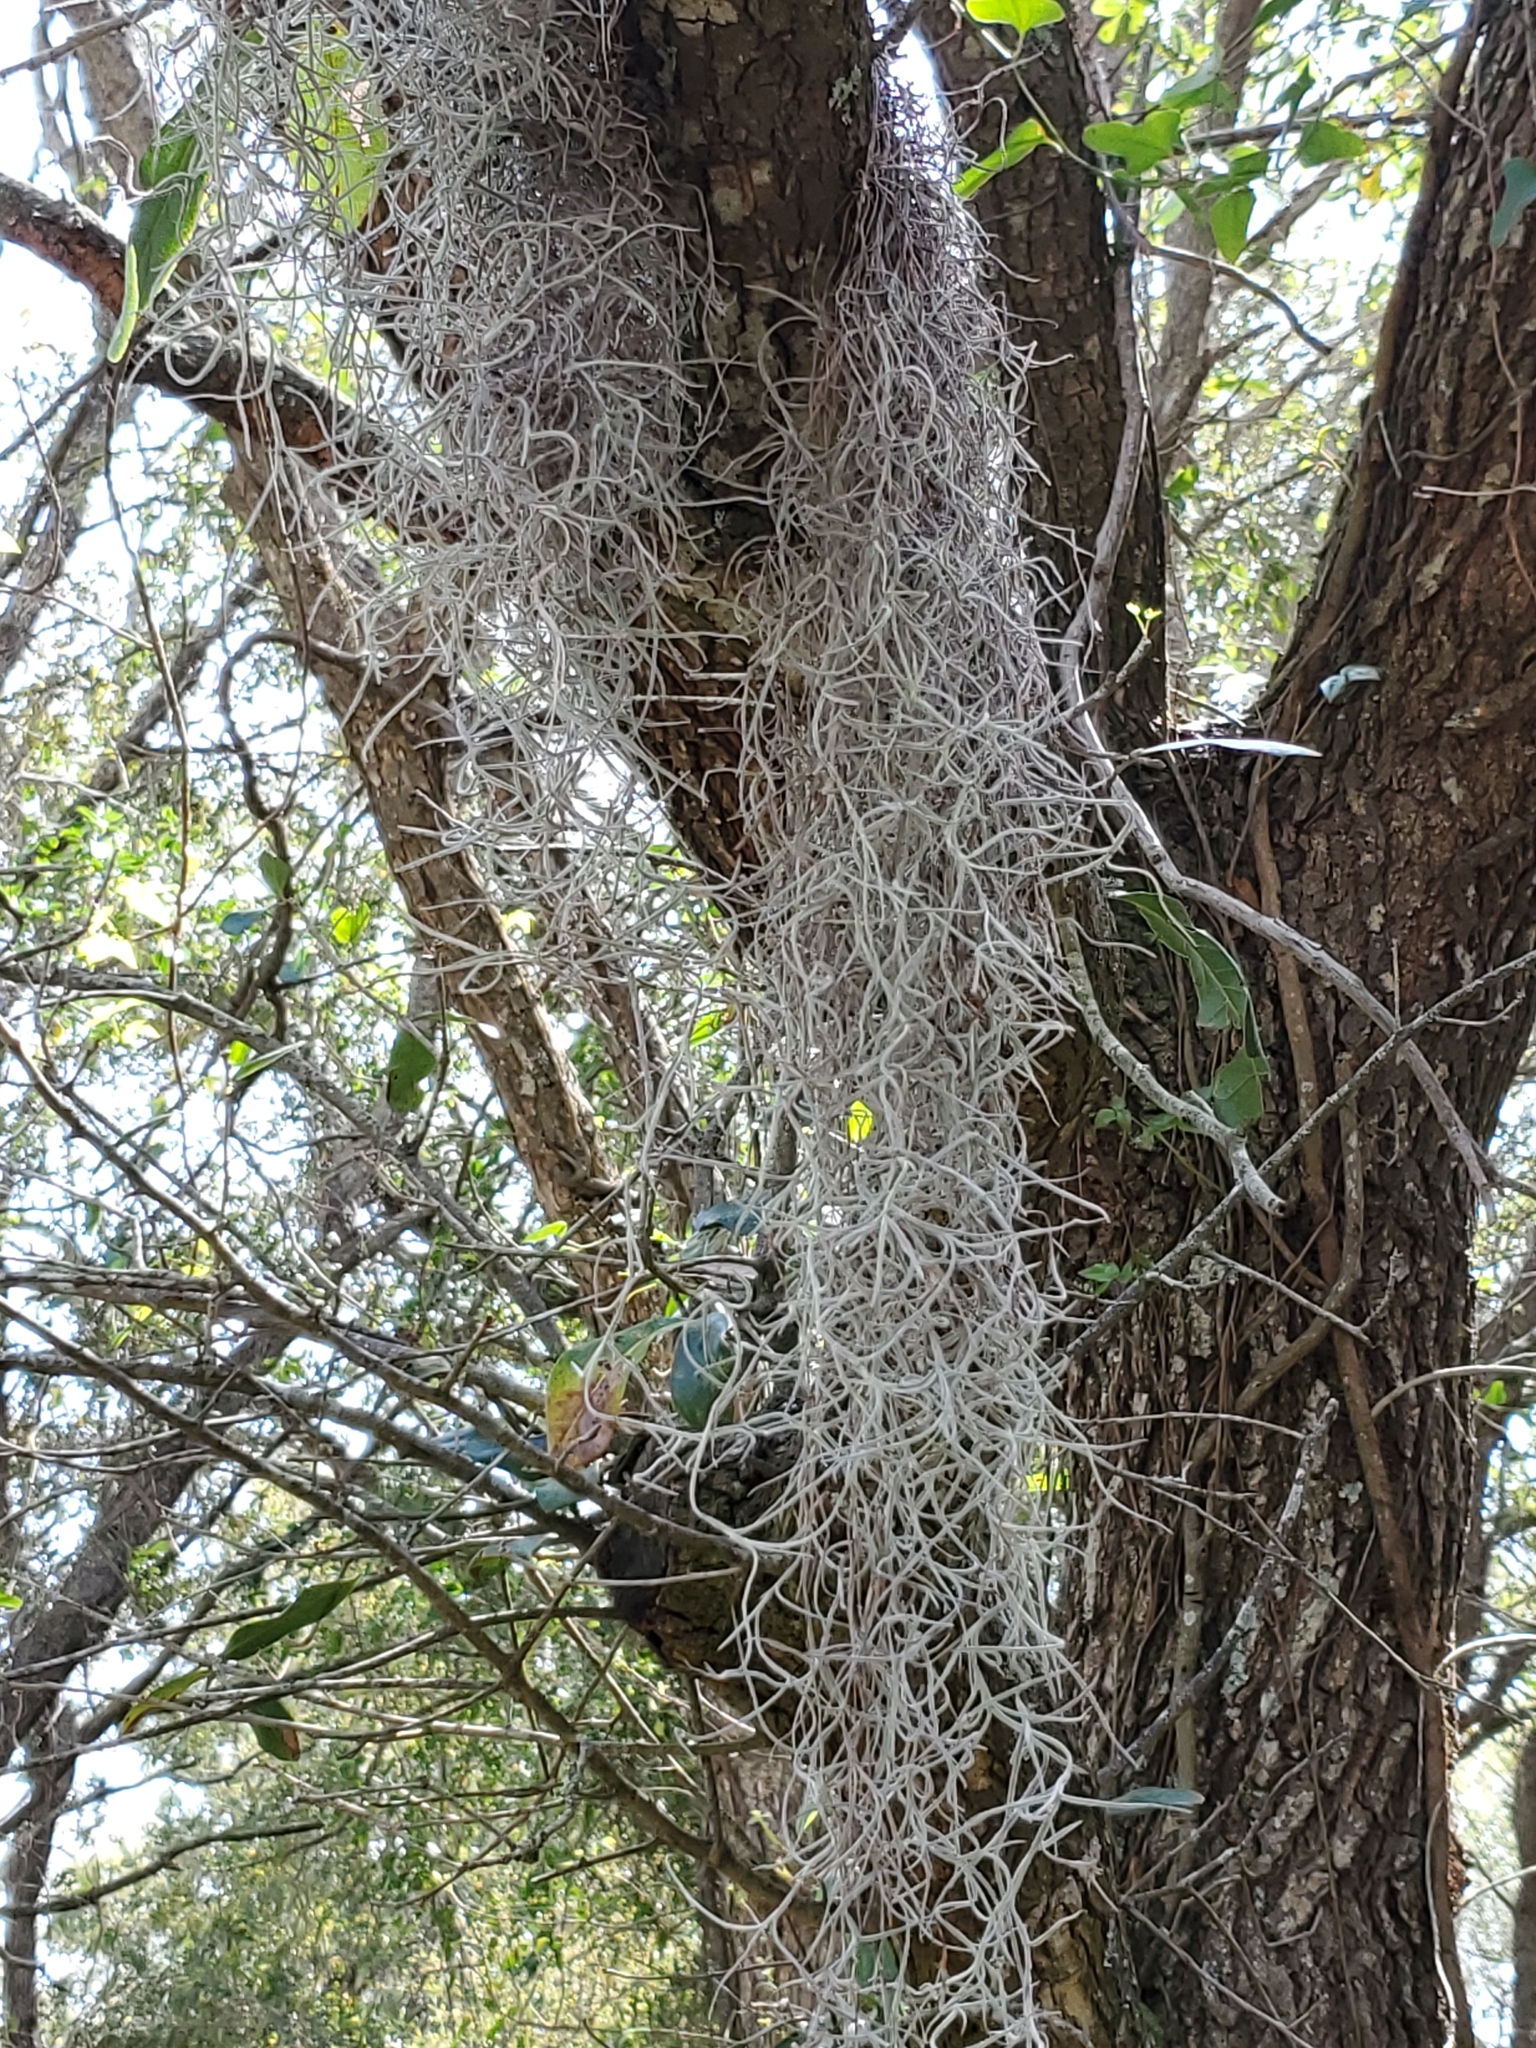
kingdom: Plantae
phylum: Tracheophyta
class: Liliopsida
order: Poales
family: Bromeliaceae
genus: Tillandsia
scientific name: Tillandsia usneoides
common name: Spanish moss
